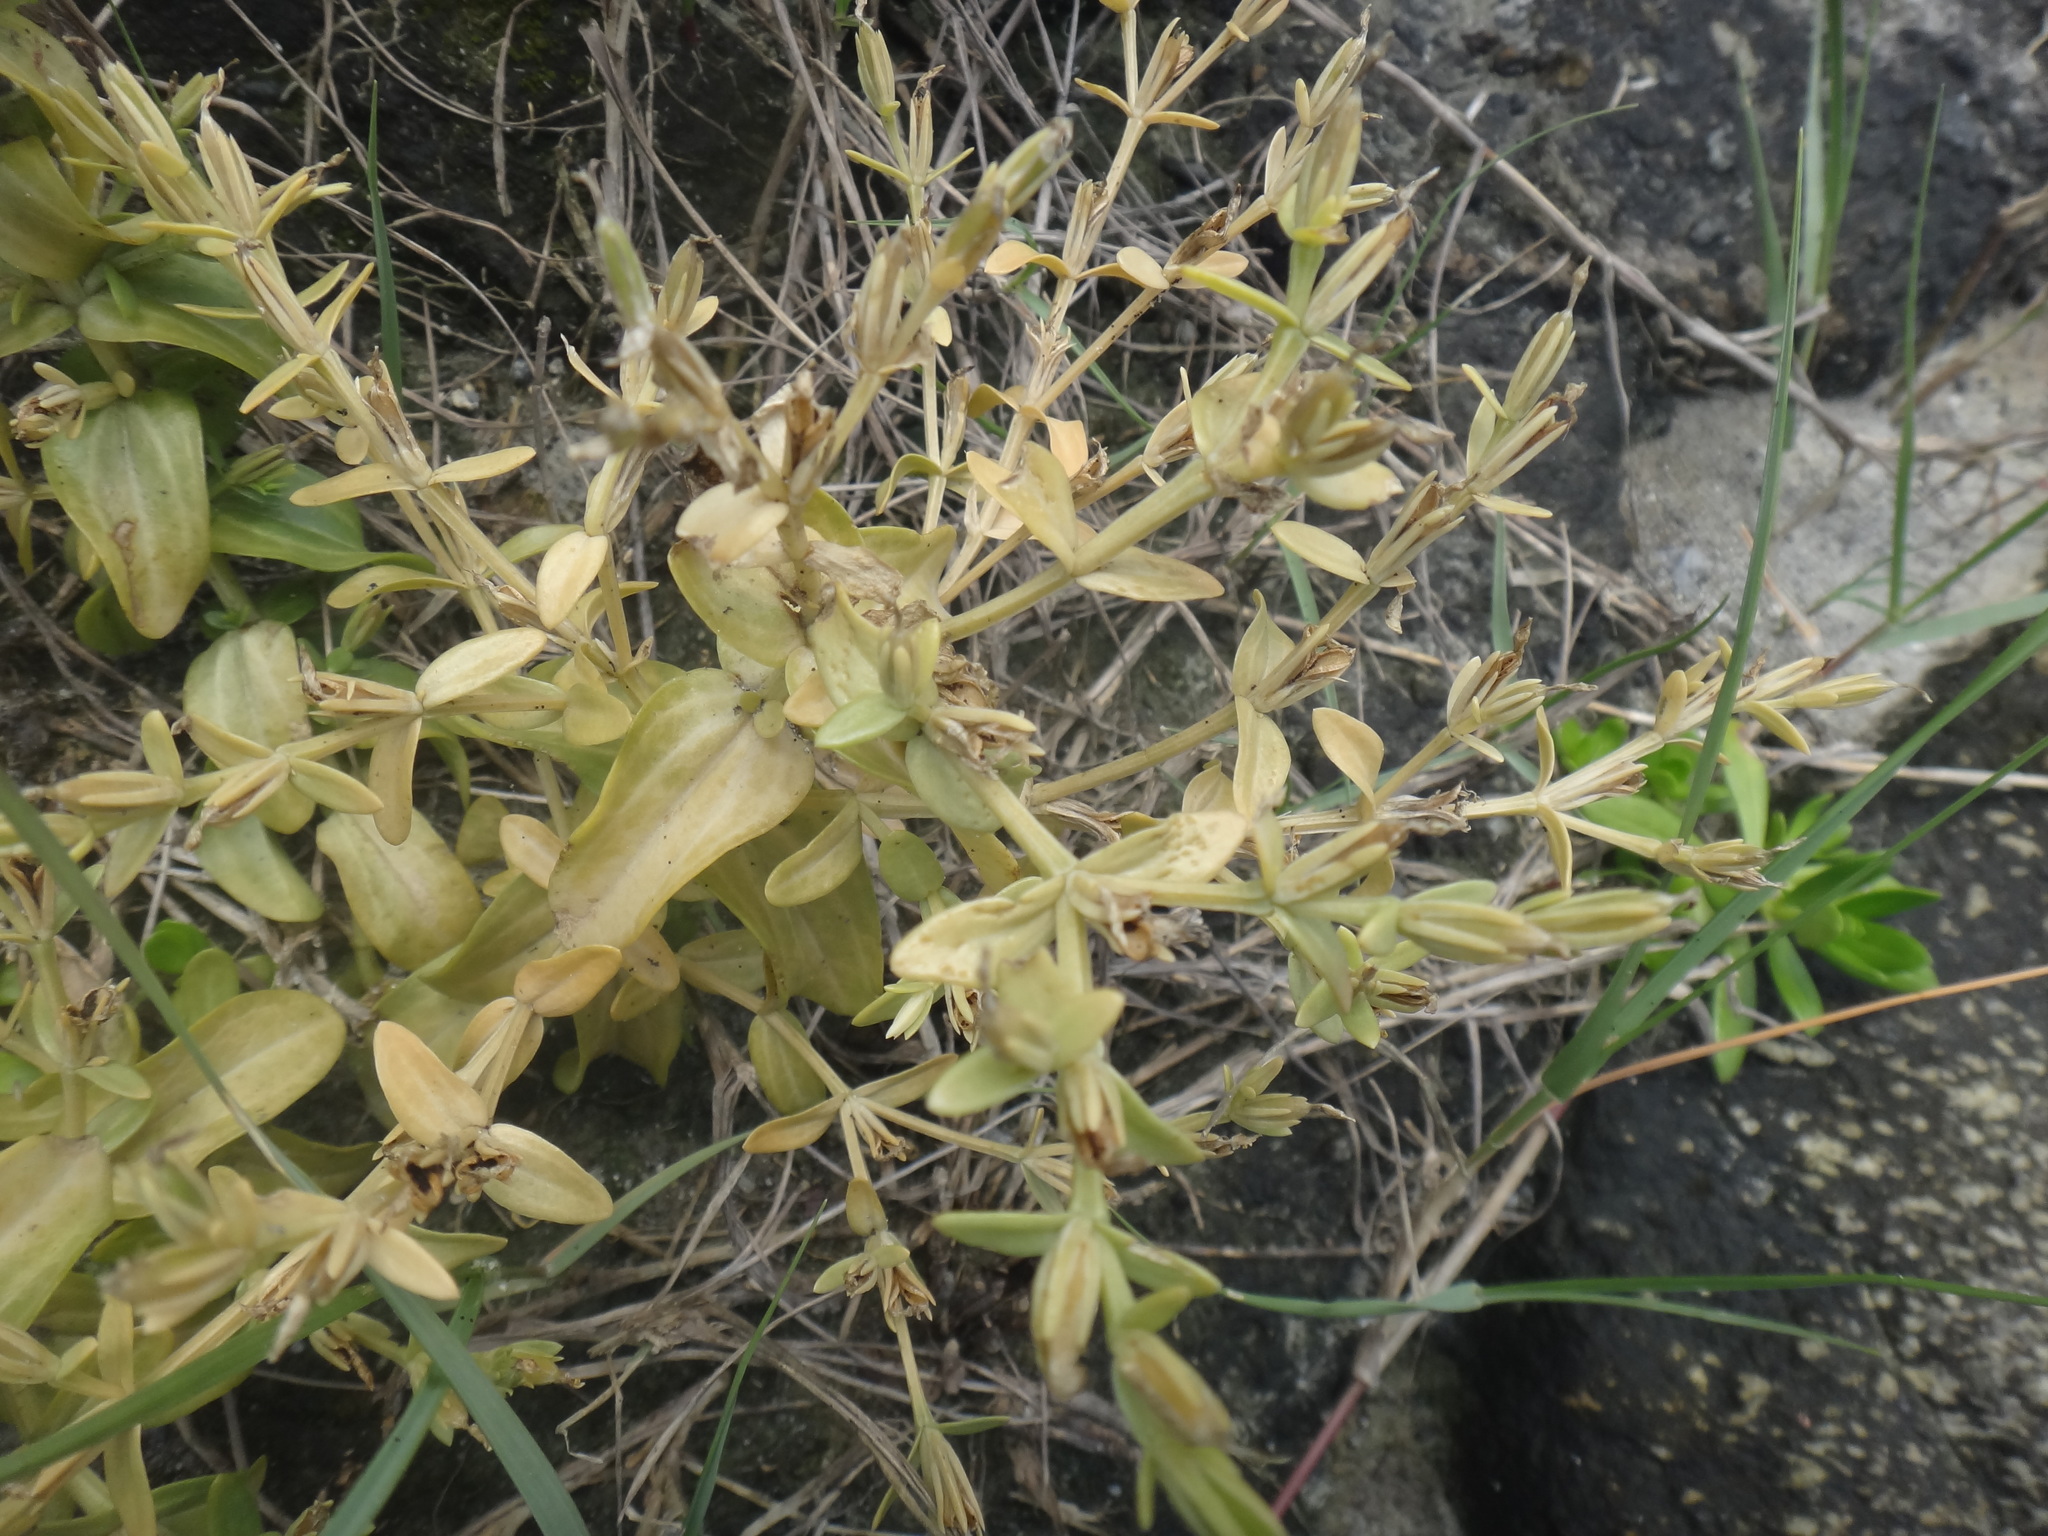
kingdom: Plantae
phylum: Tracheophyta
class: Magnoliopsida
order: Gentianales
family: Gentianaceae
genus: Schenkia
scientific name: Schenkia japonica
